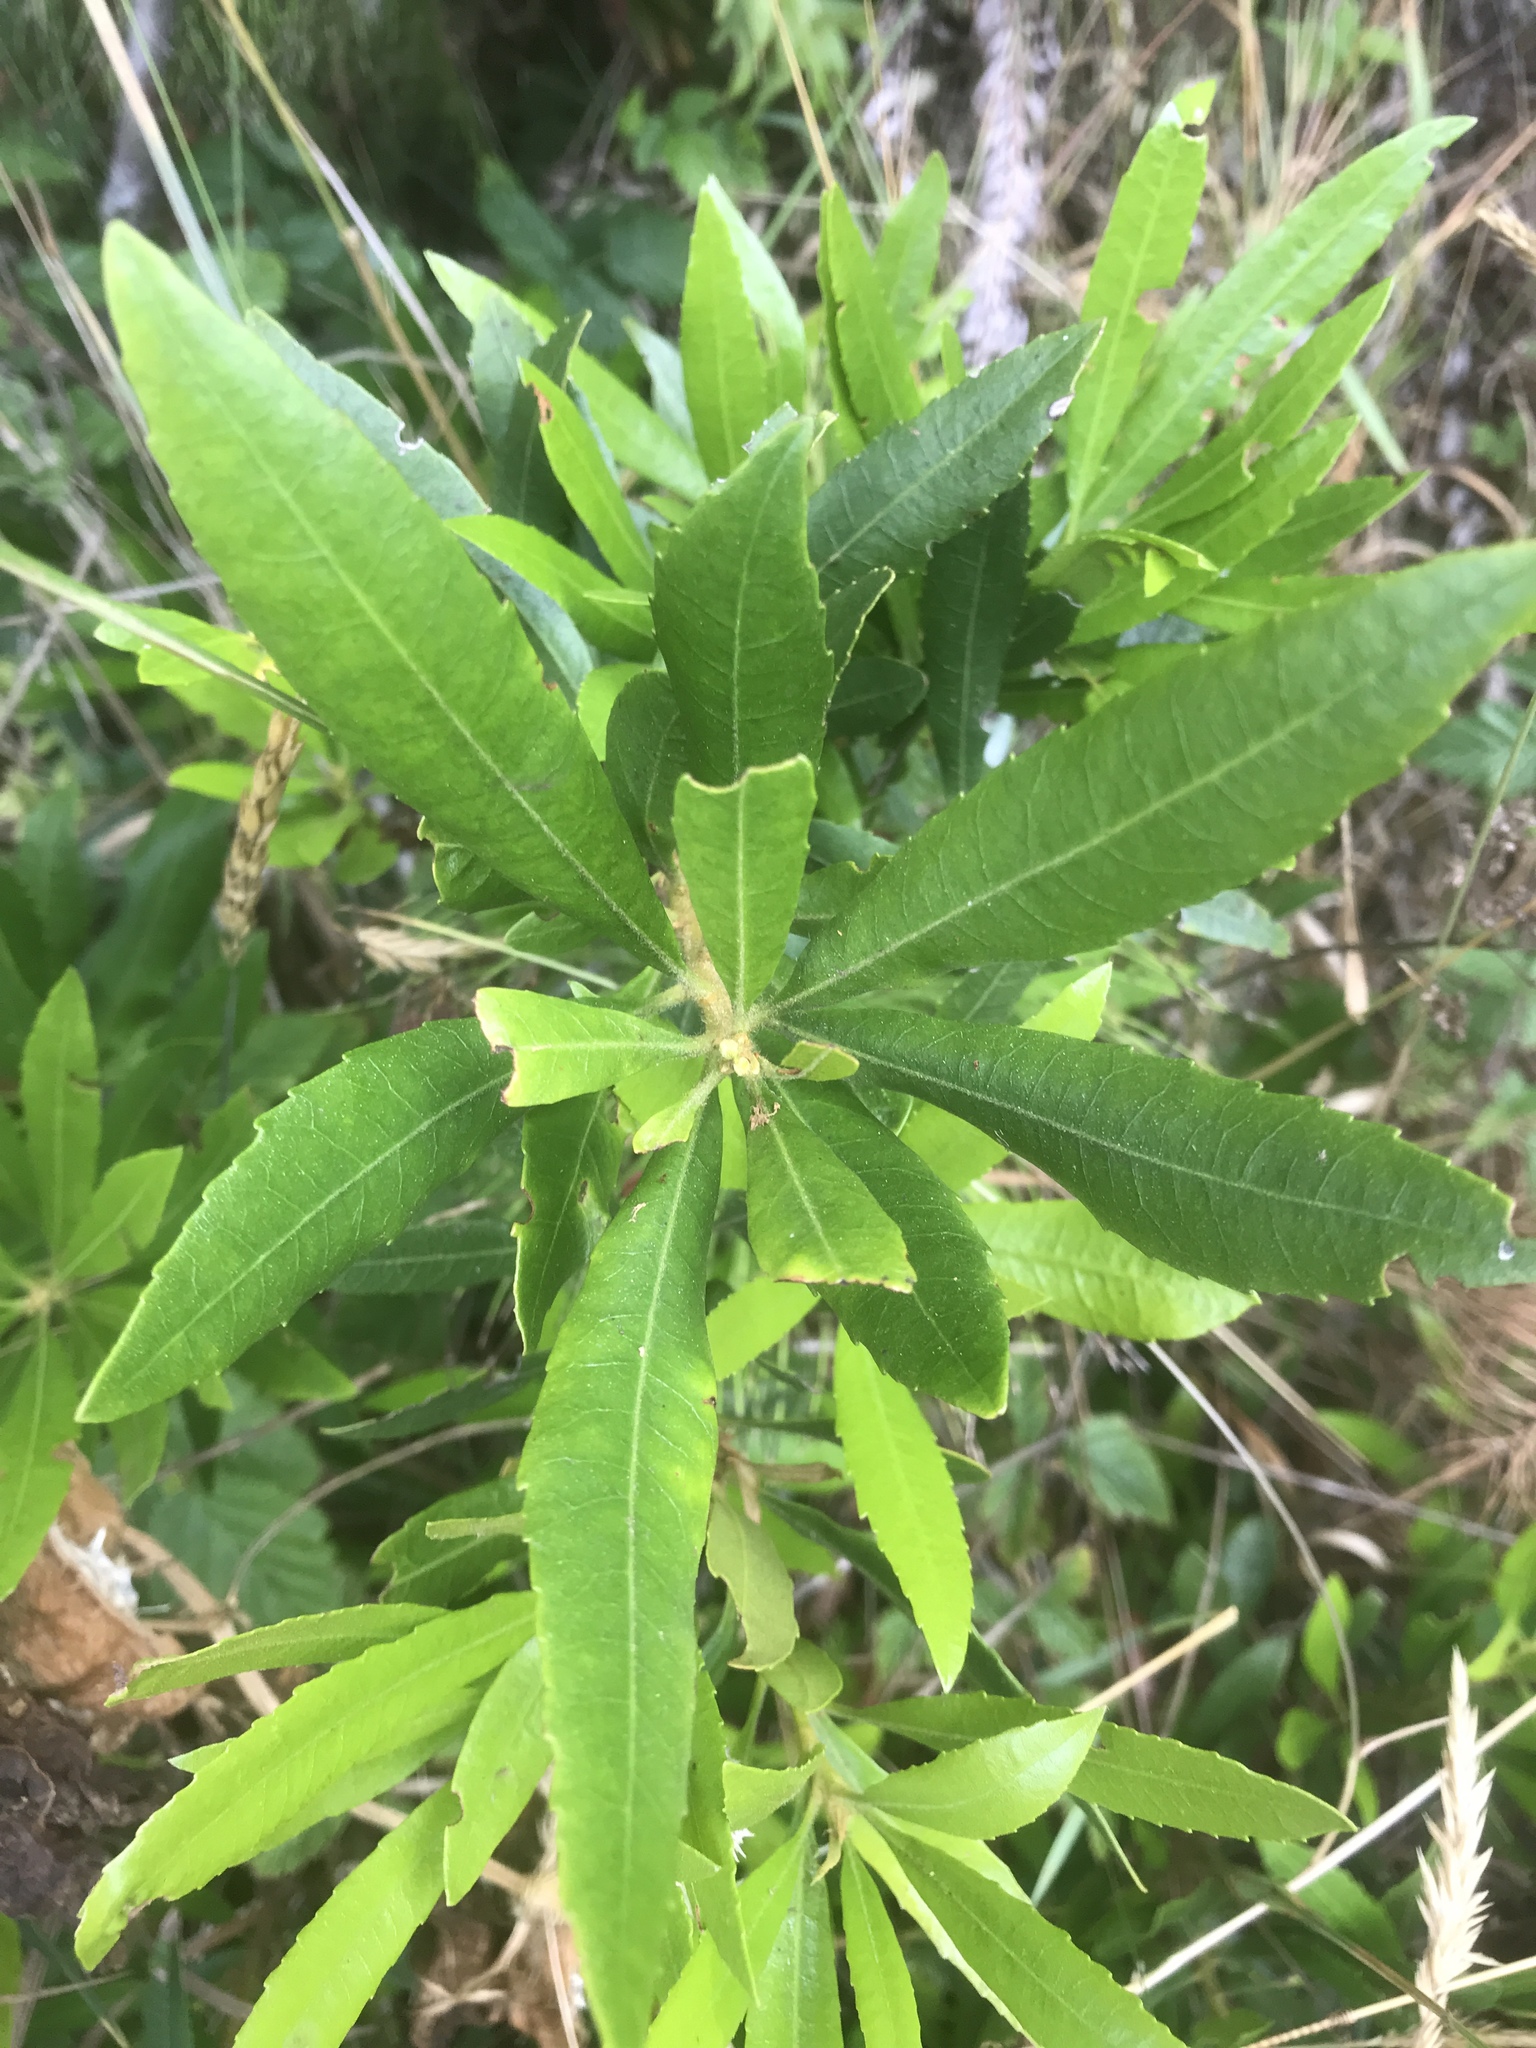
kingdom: Plantae
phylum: Tracheophyta
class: Magnoliopsida
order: Fagales
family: Myricaceae
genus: Morella
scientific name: Morella californica
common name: California wax-myrtle
